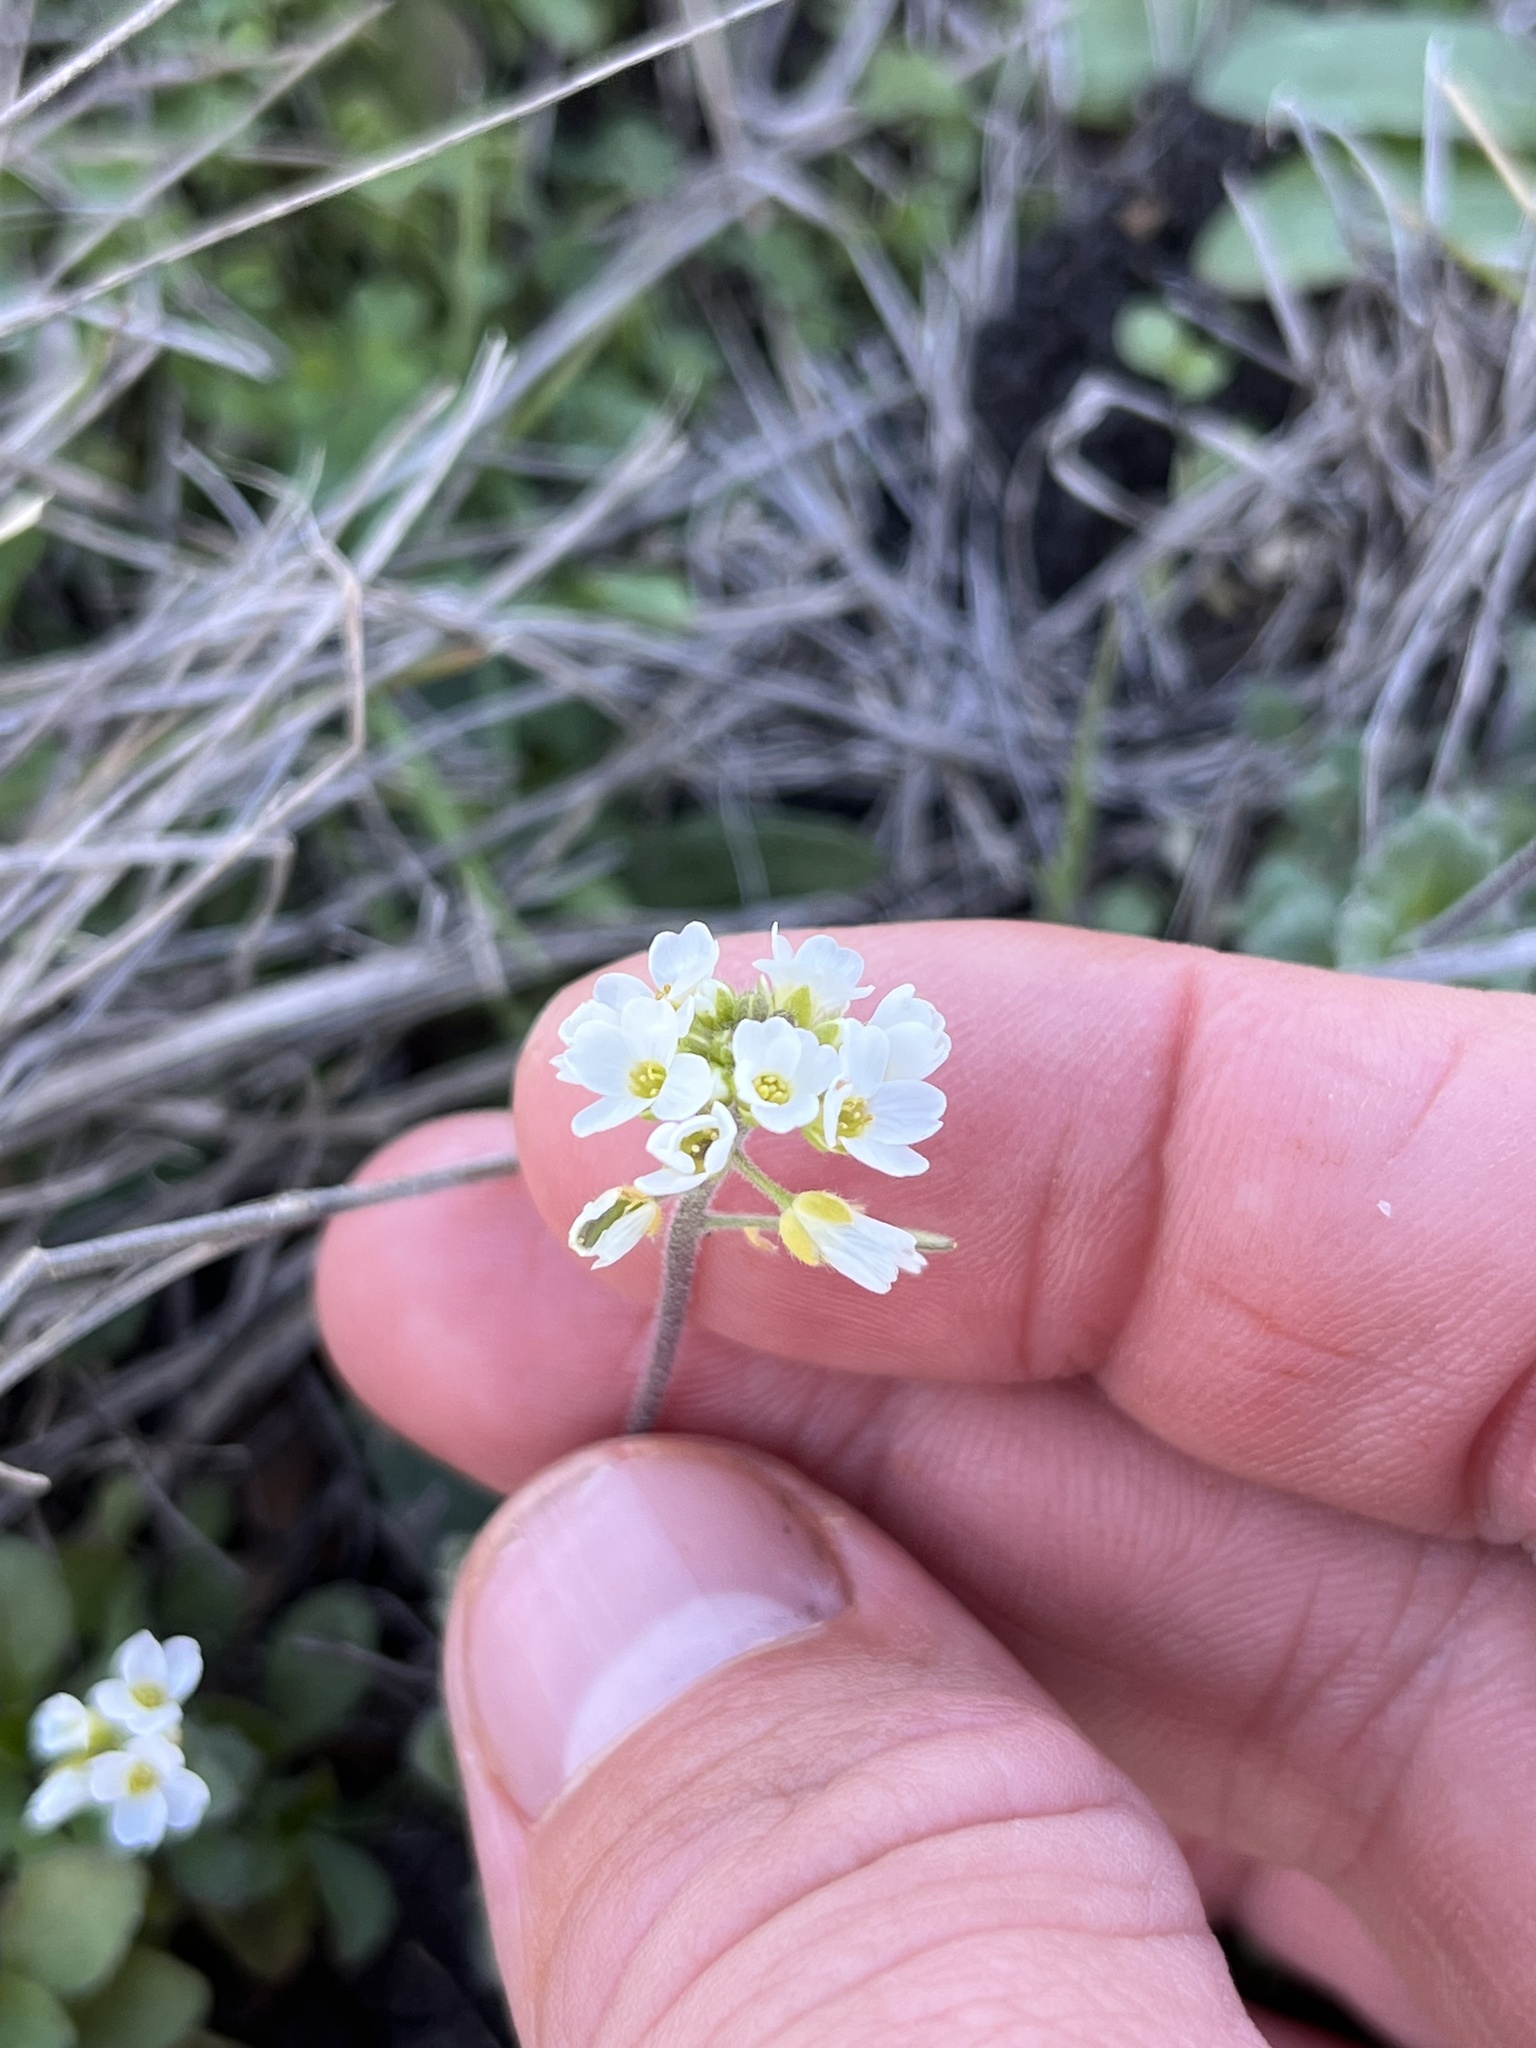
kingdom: Plantae
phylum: Tracheophyta
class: Magnoliopsida
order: Brassicales
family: Brassicaceae
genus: Tomostima
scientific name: Tomostima cuneifolia
